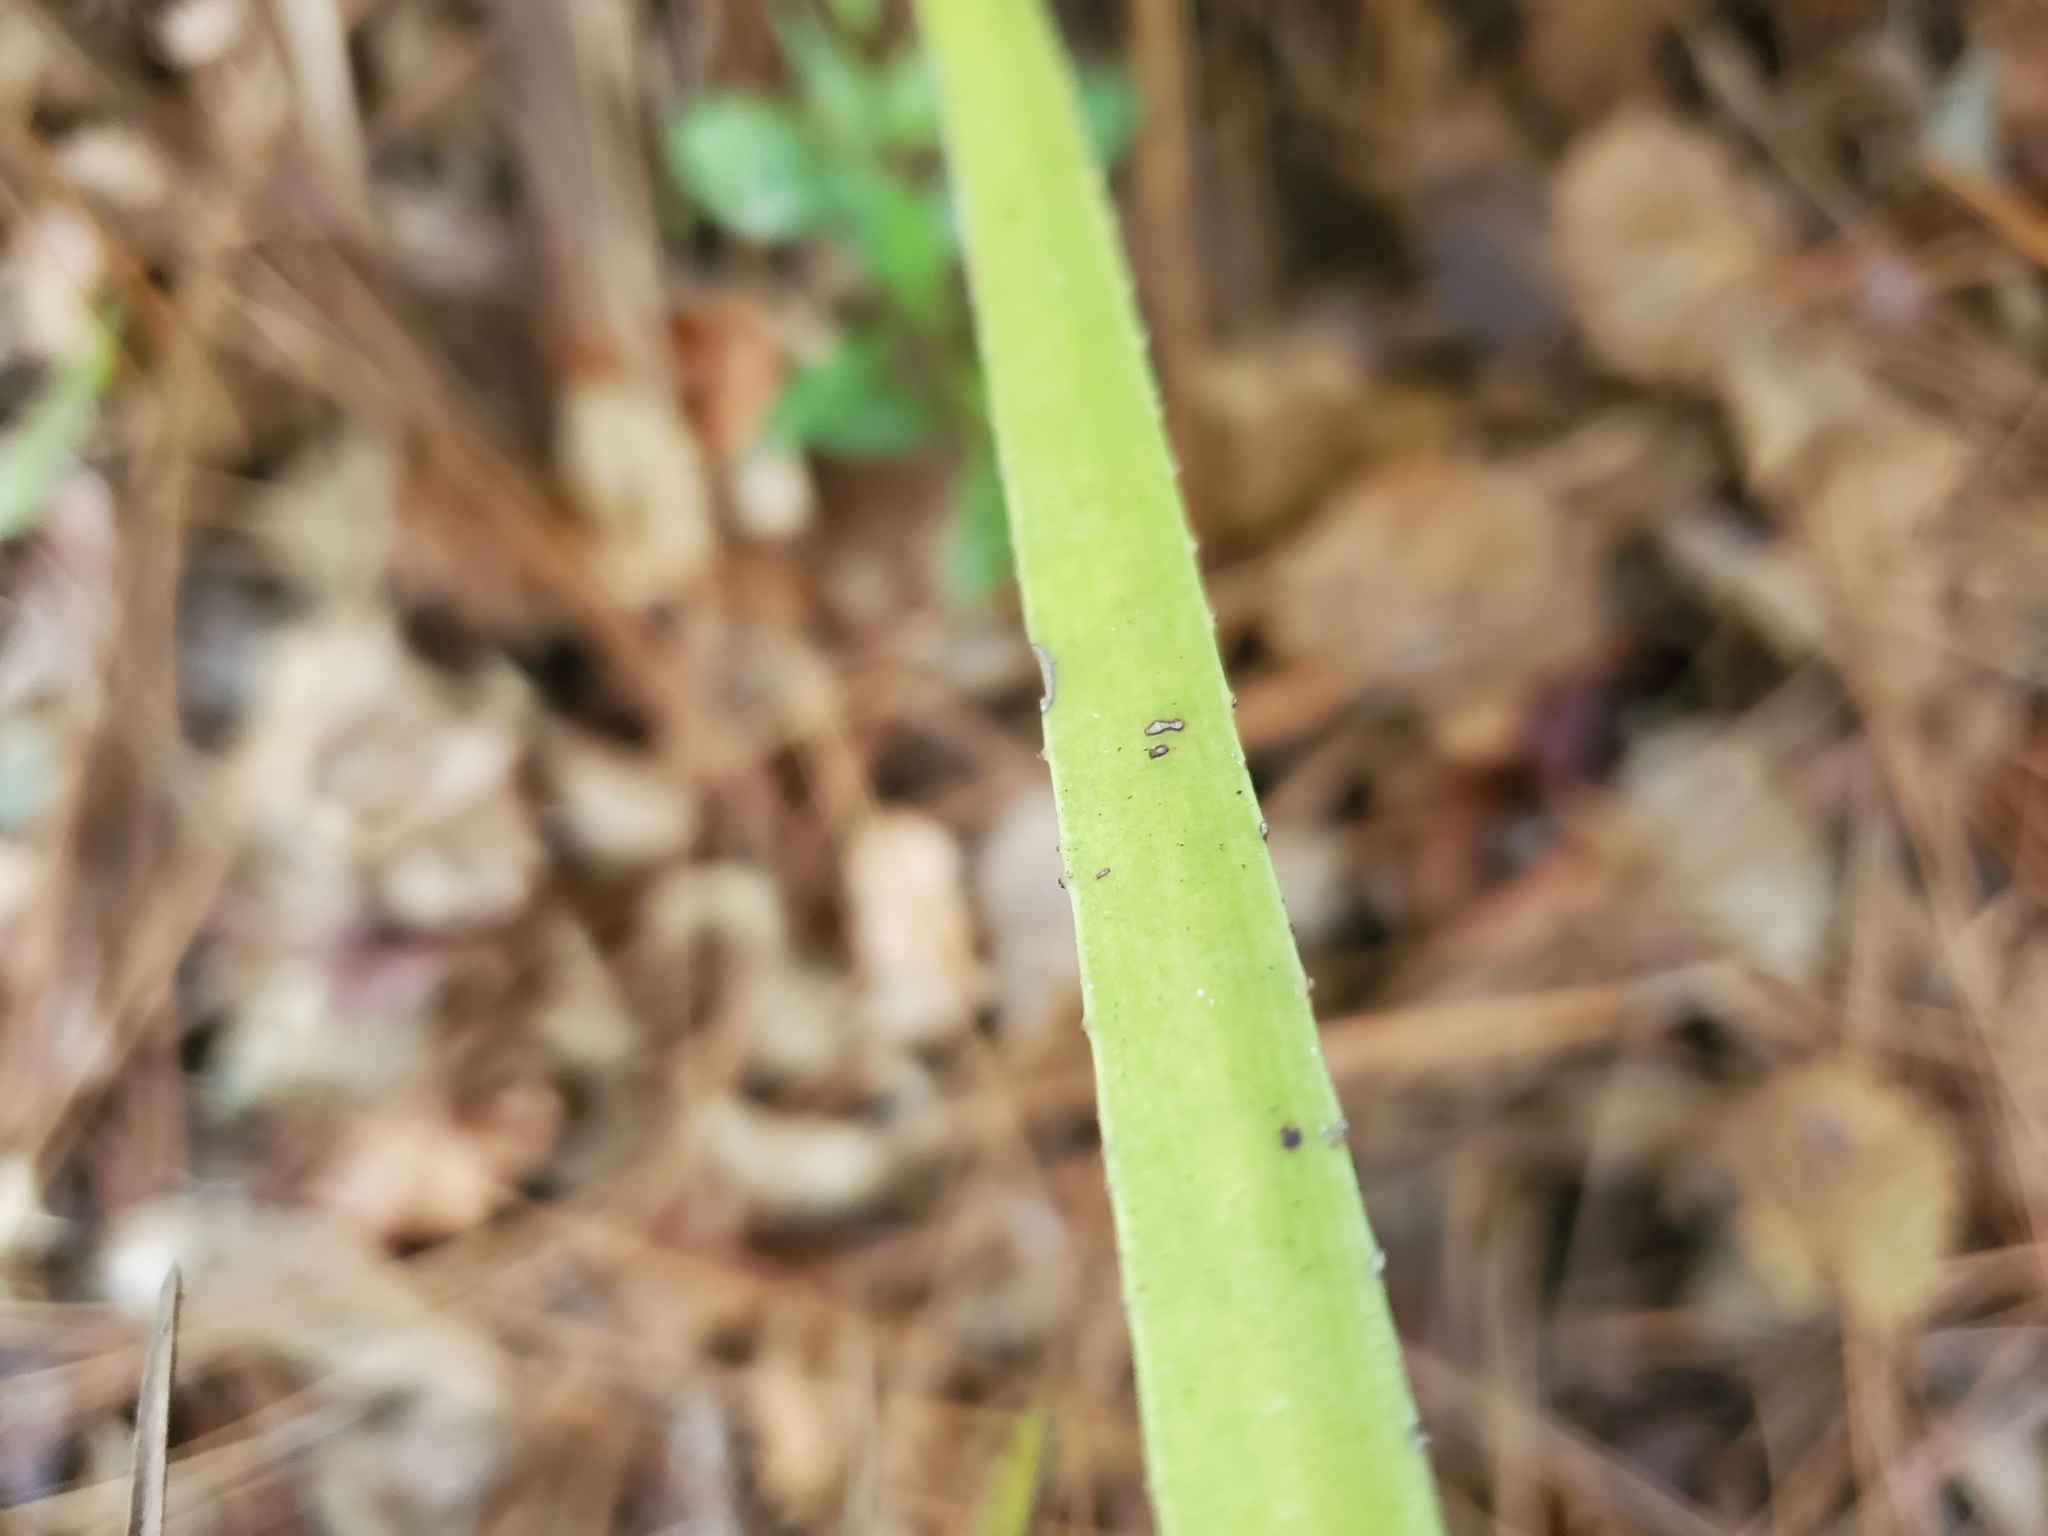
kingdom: Plantae
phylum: Tracheophyta
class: Liliopsida
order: Arecales
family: Arecaceae
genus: Serenoa
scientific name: Serenoa repens
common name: Saw-palmetto
